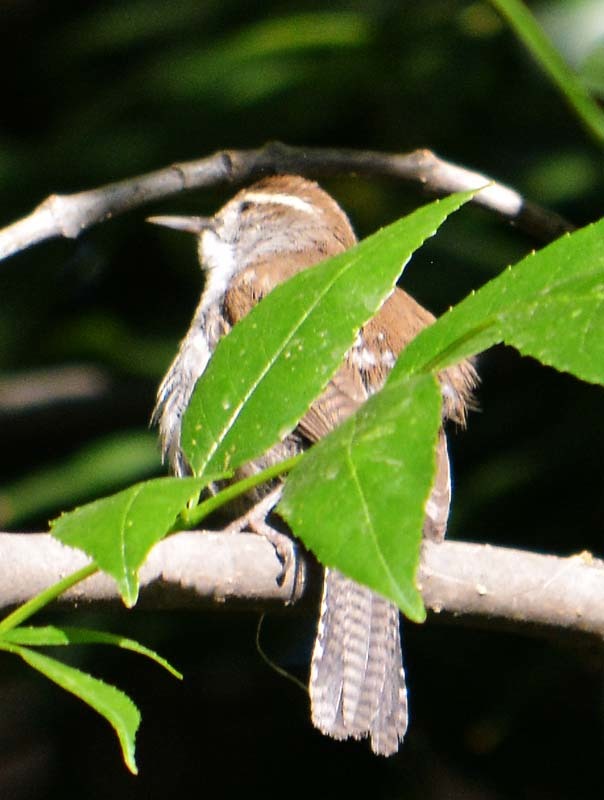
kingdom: Animalia
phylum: Chordata
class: Aves
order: Passeriformes
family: Troglodytidae
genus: Thryomanes
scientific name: Thryomanes bewickii
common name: Bewick's wren
